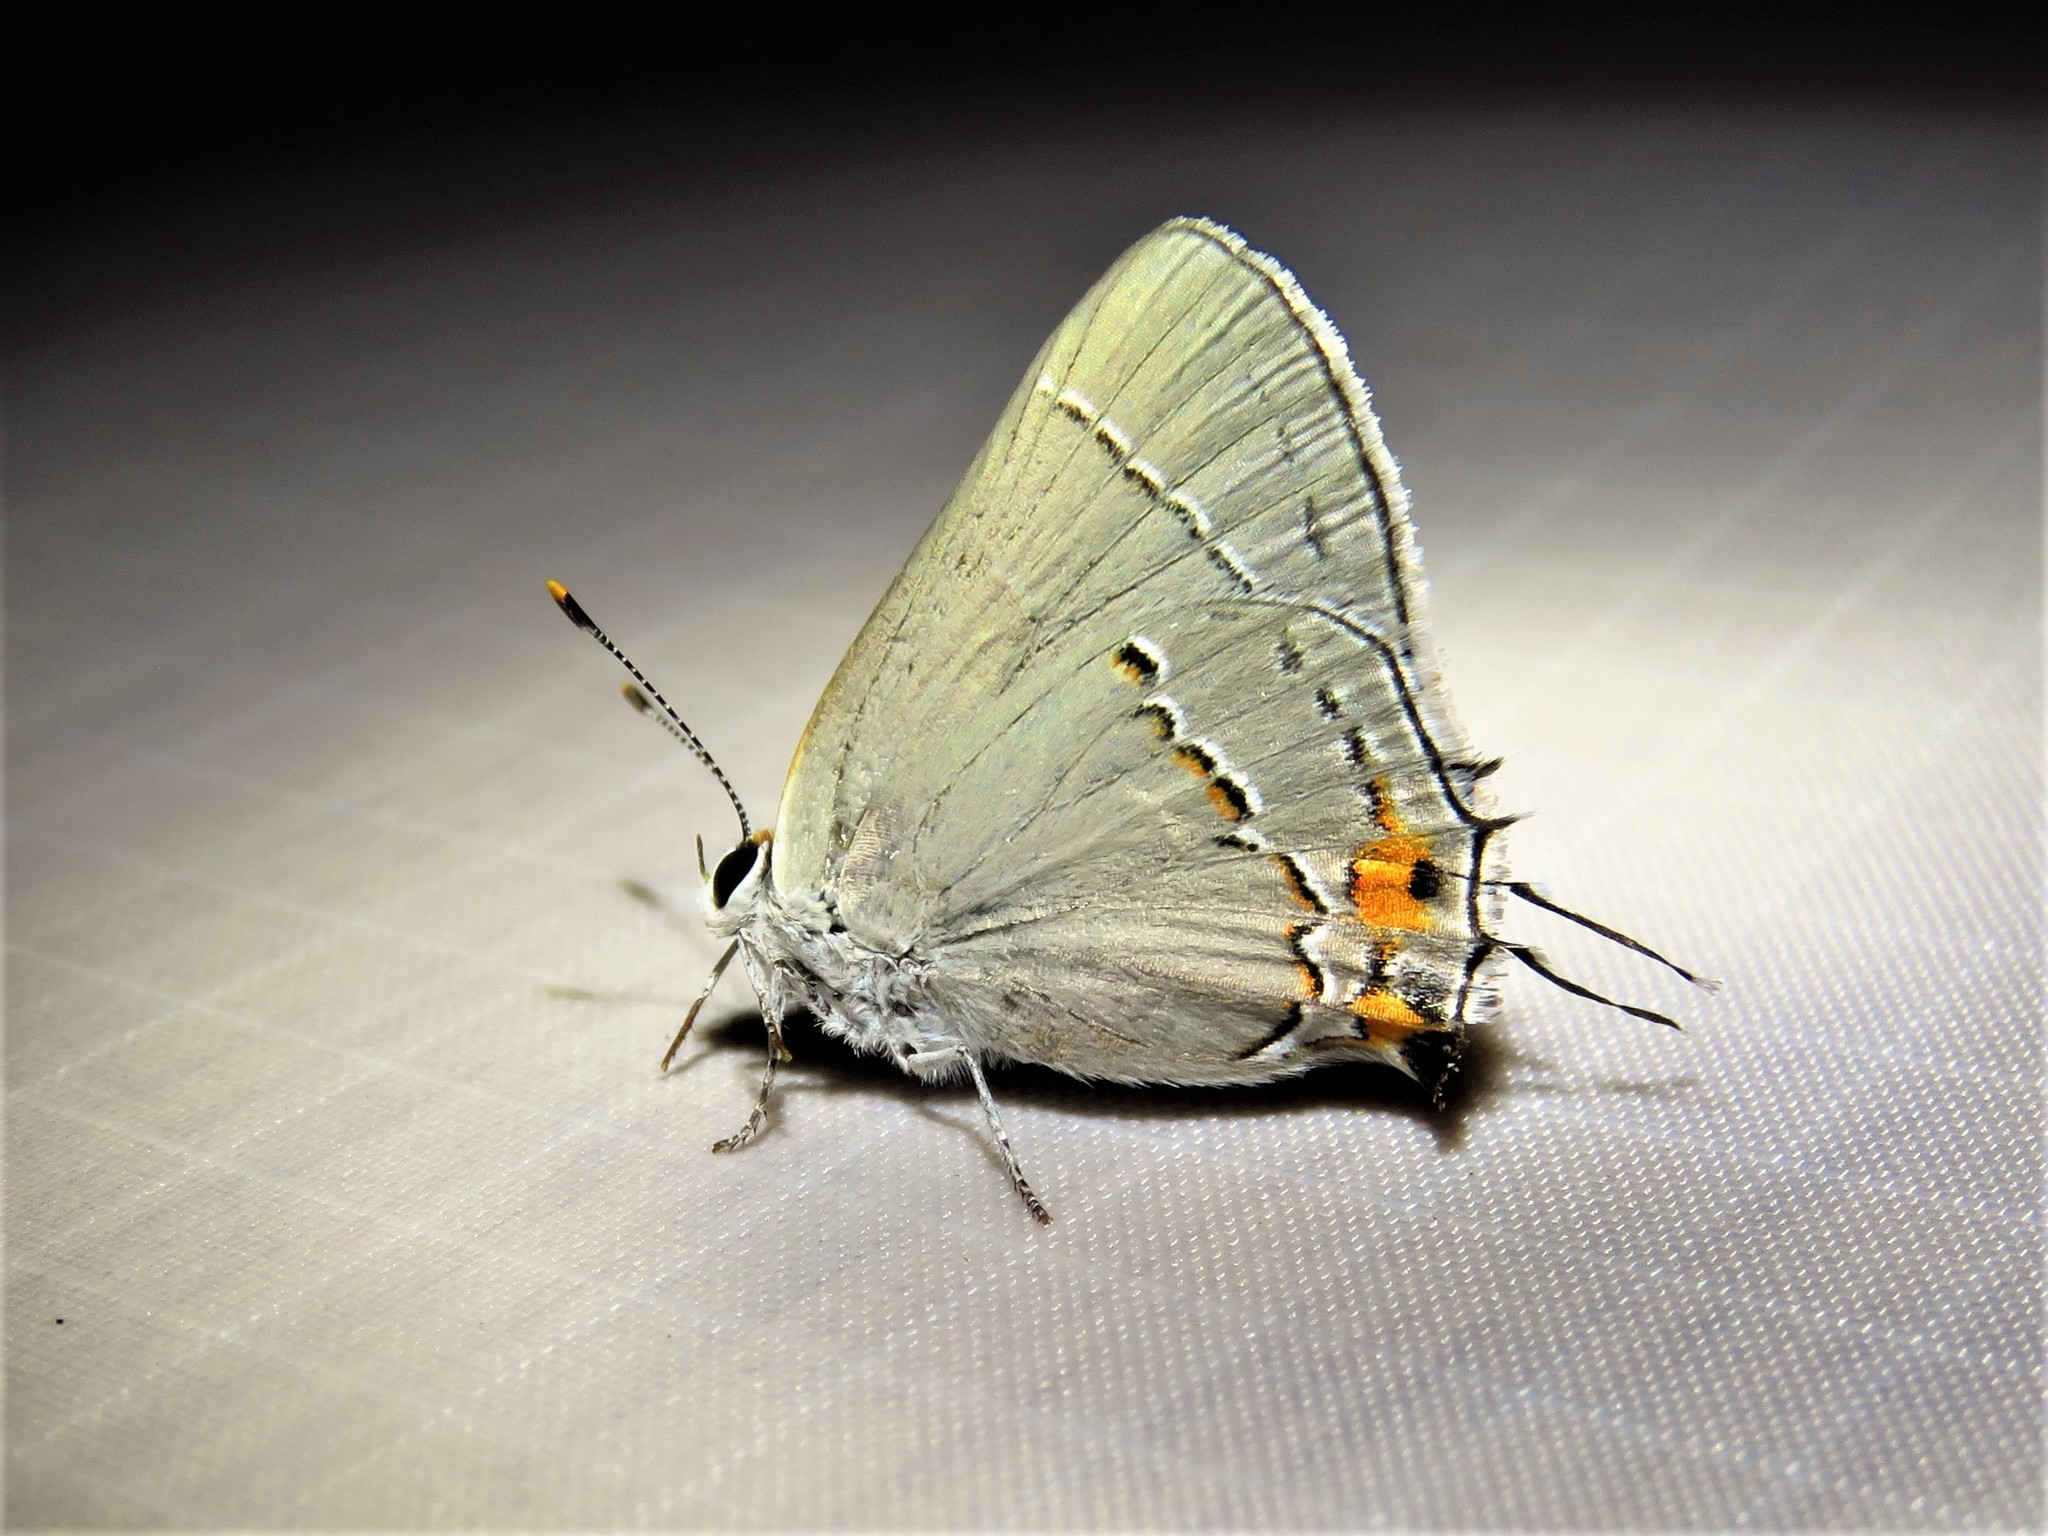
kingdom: Animalia
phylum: Arthropoda
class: Insecta
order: Lepidoptera
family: Lycaenidae
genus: Strymon
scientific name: Strymon melinus
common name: Gray hairstreak
